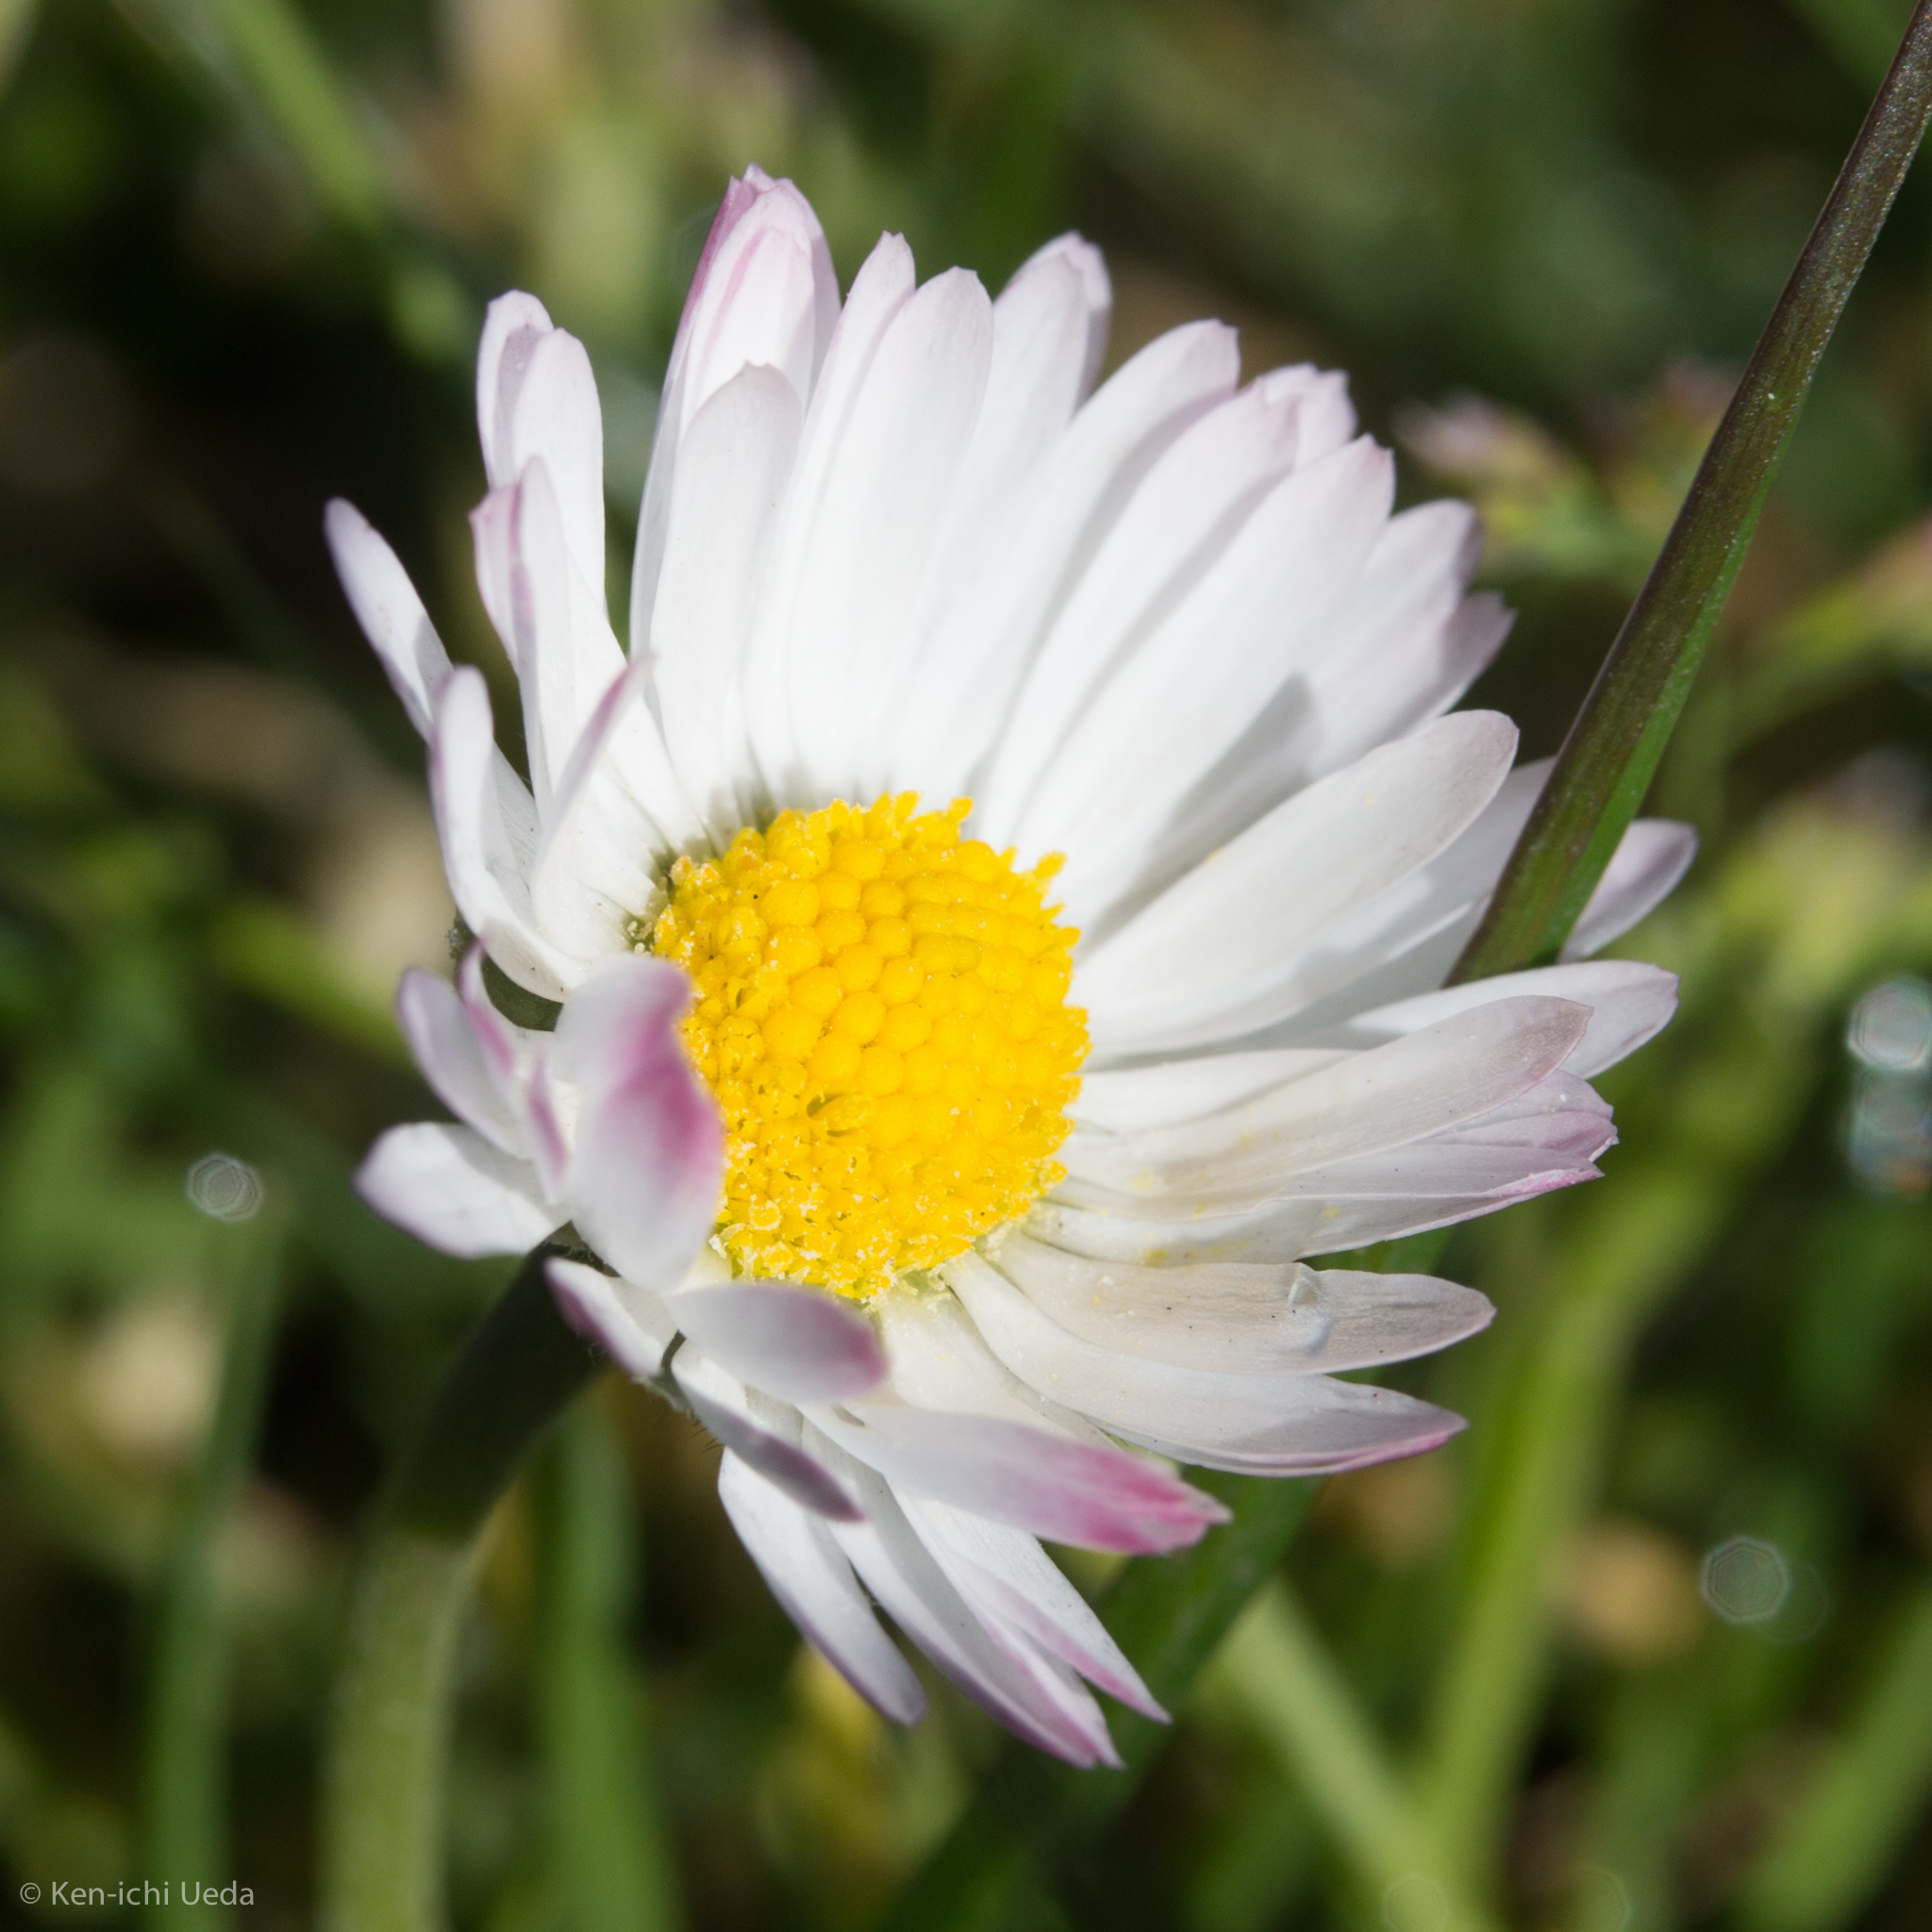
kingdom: Plantae
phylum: Tracheophyta
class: Magnoliopsida
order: Asterales
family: Asteraceae
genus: Bellis
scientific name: Bellis perennis
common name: Lawndaisy
